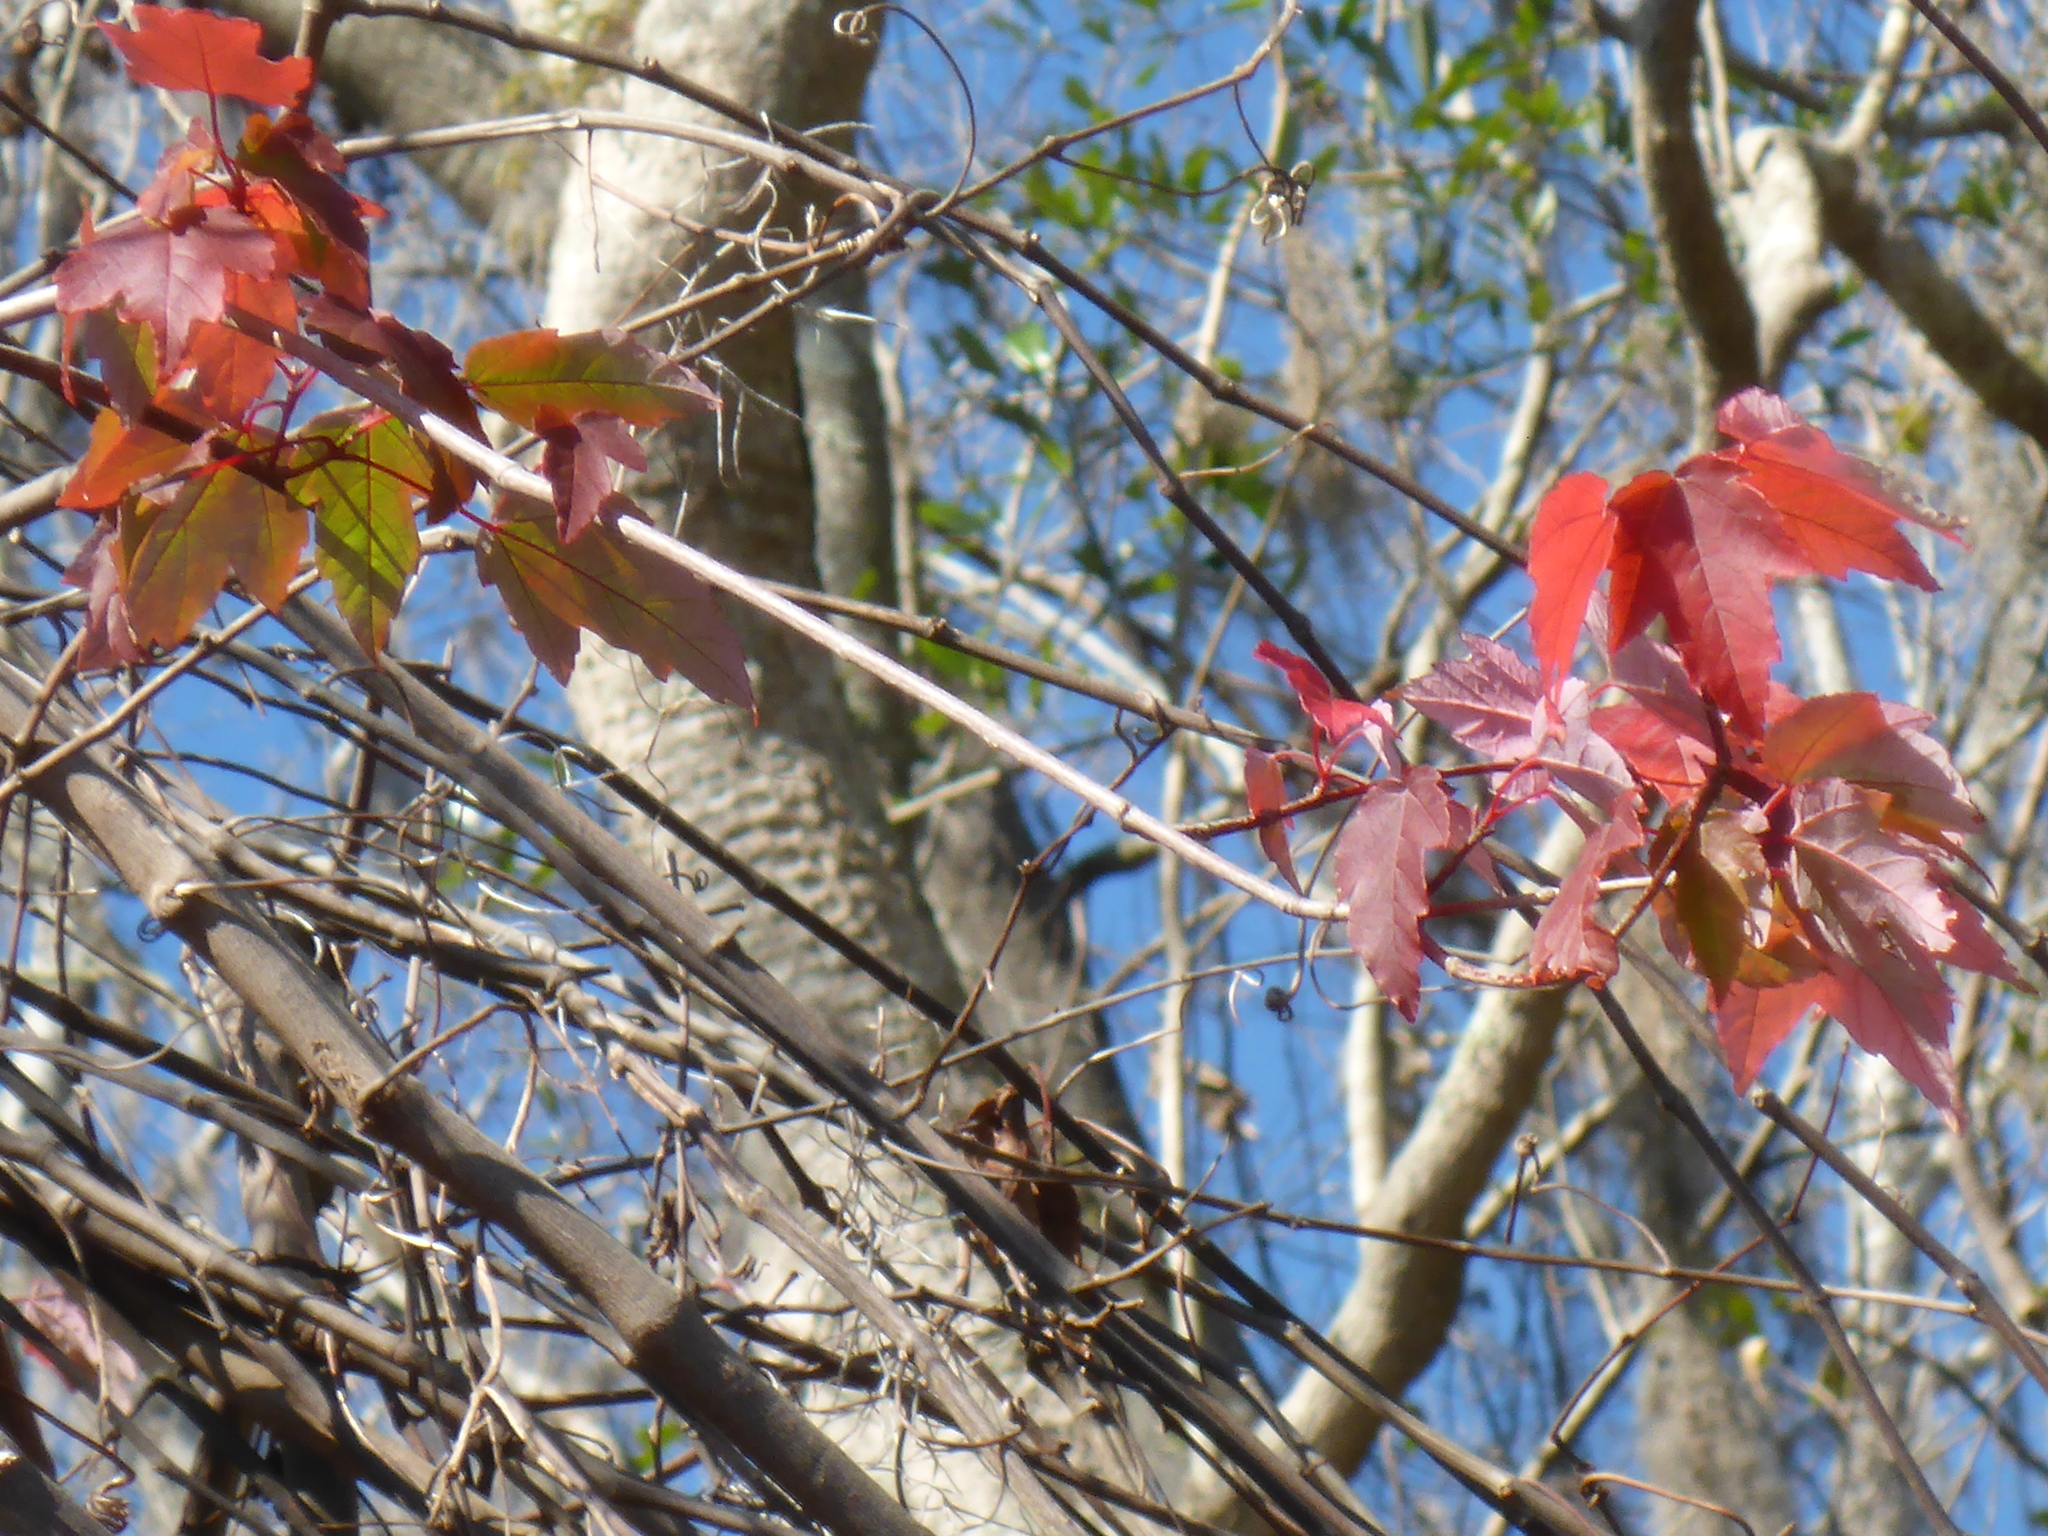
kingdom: Plantae
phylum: Tracheophyta
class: Magnoliopsida
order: Sapindales
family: Sapindaceae
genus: Acer
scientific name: Acer rubrum
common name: Red maple
